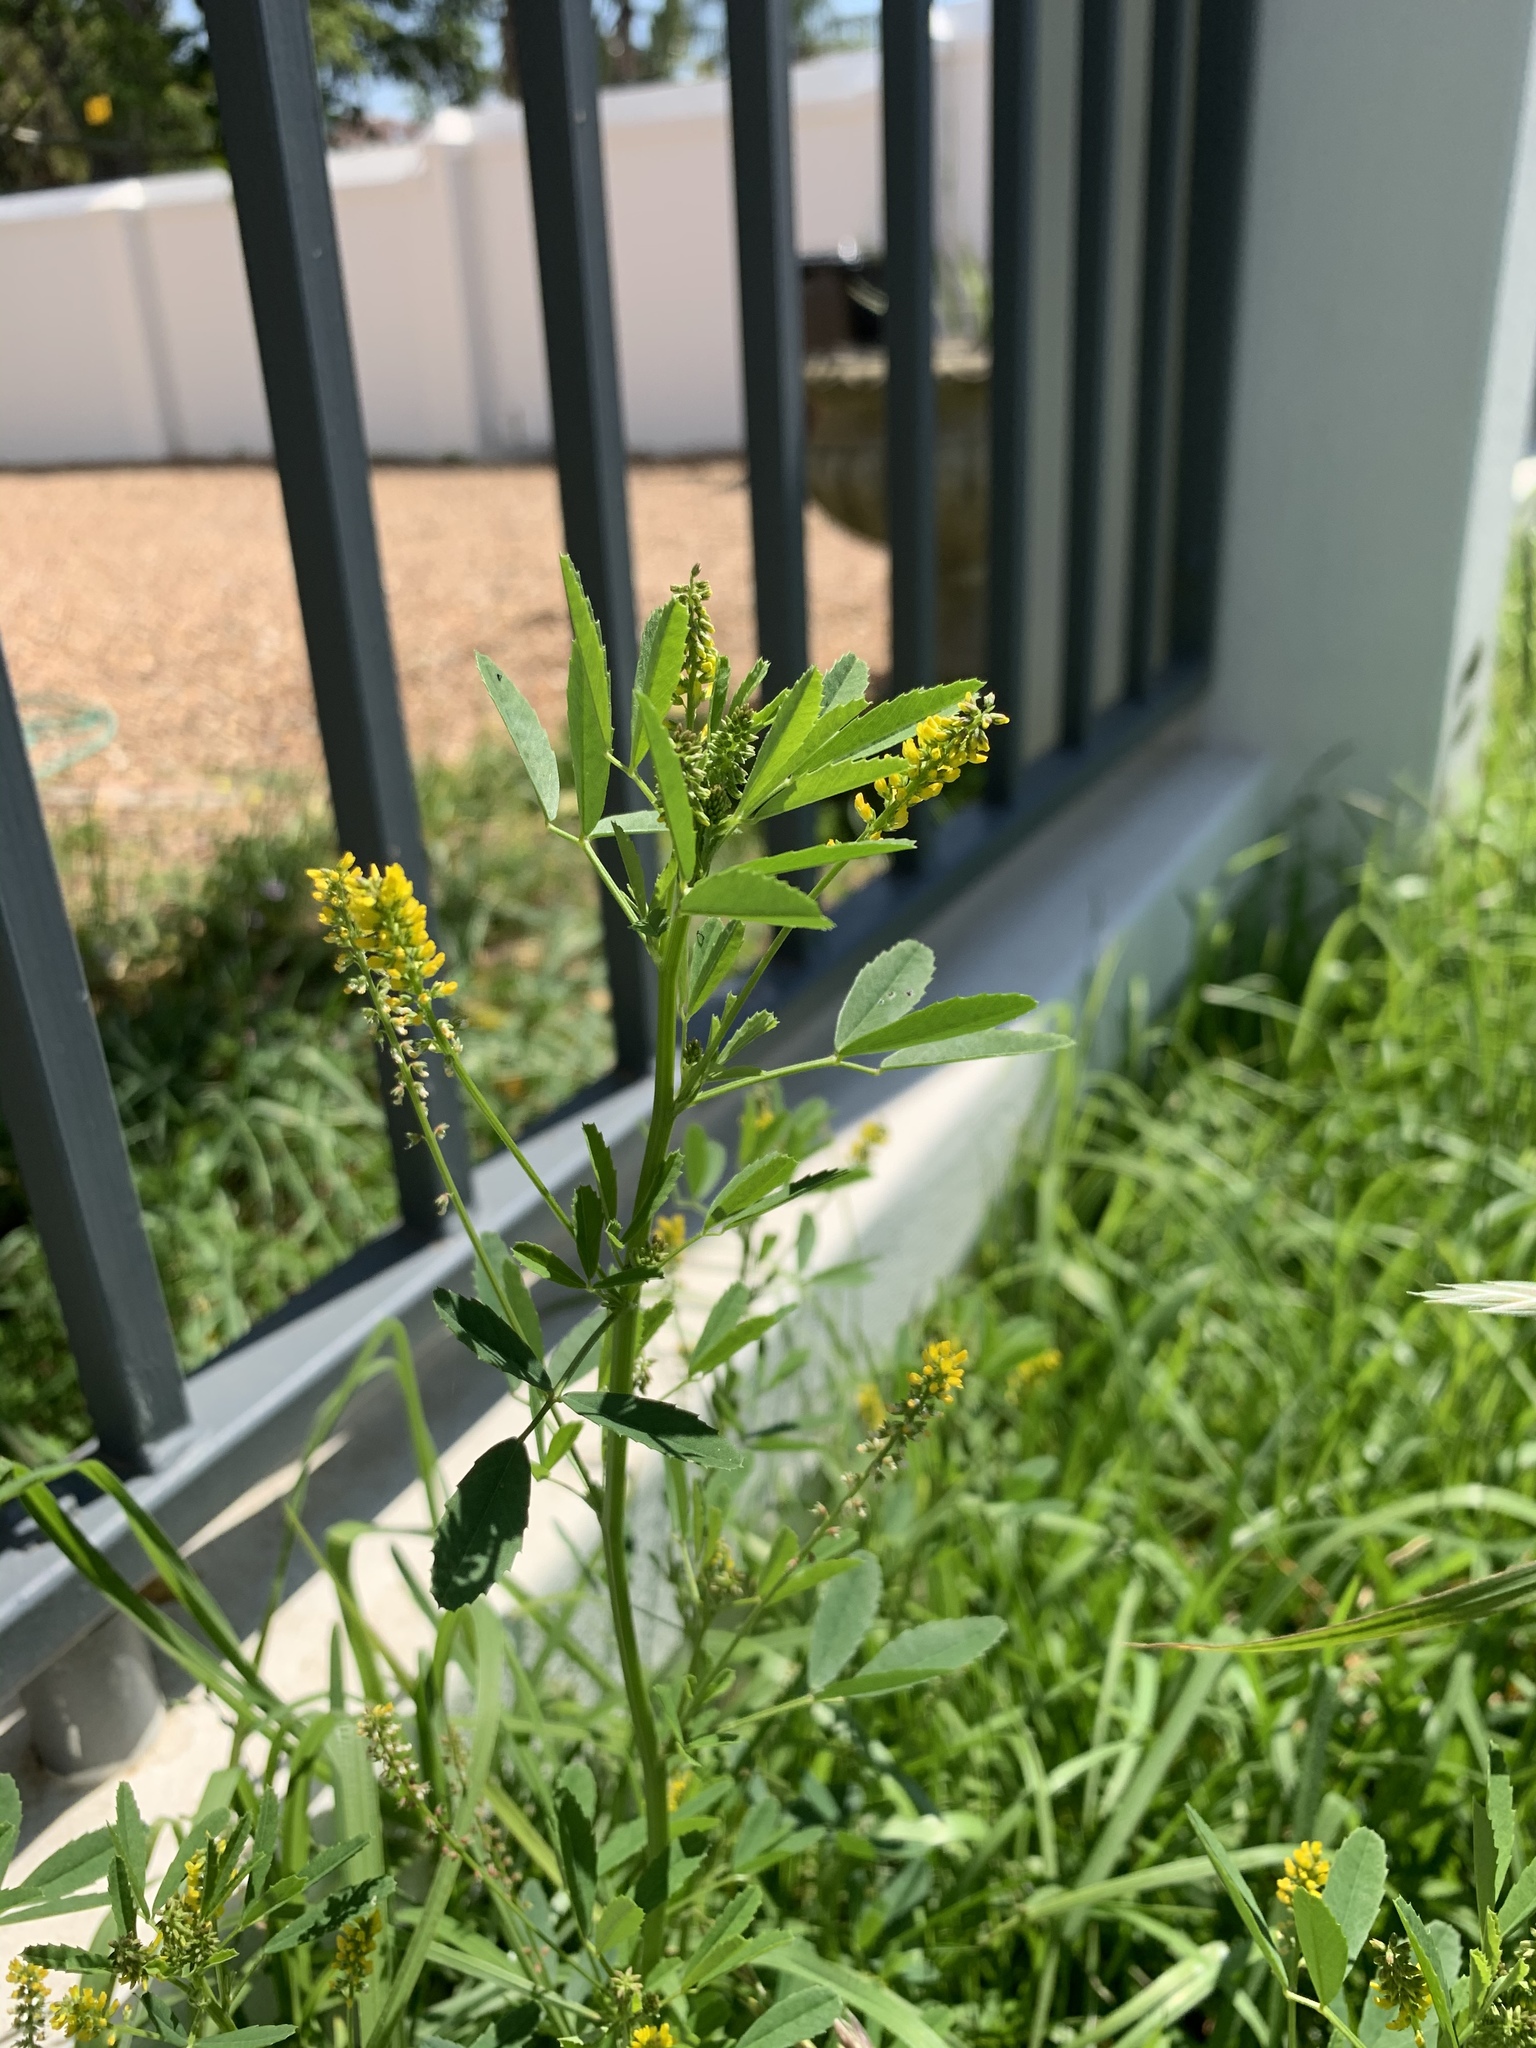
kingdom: Plantae
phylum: Tracheophyta
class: Magnoliopsida
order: Fabales
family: Fabaceae
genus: Melilotus
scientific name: Melilotus indicus
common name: Small melilot
